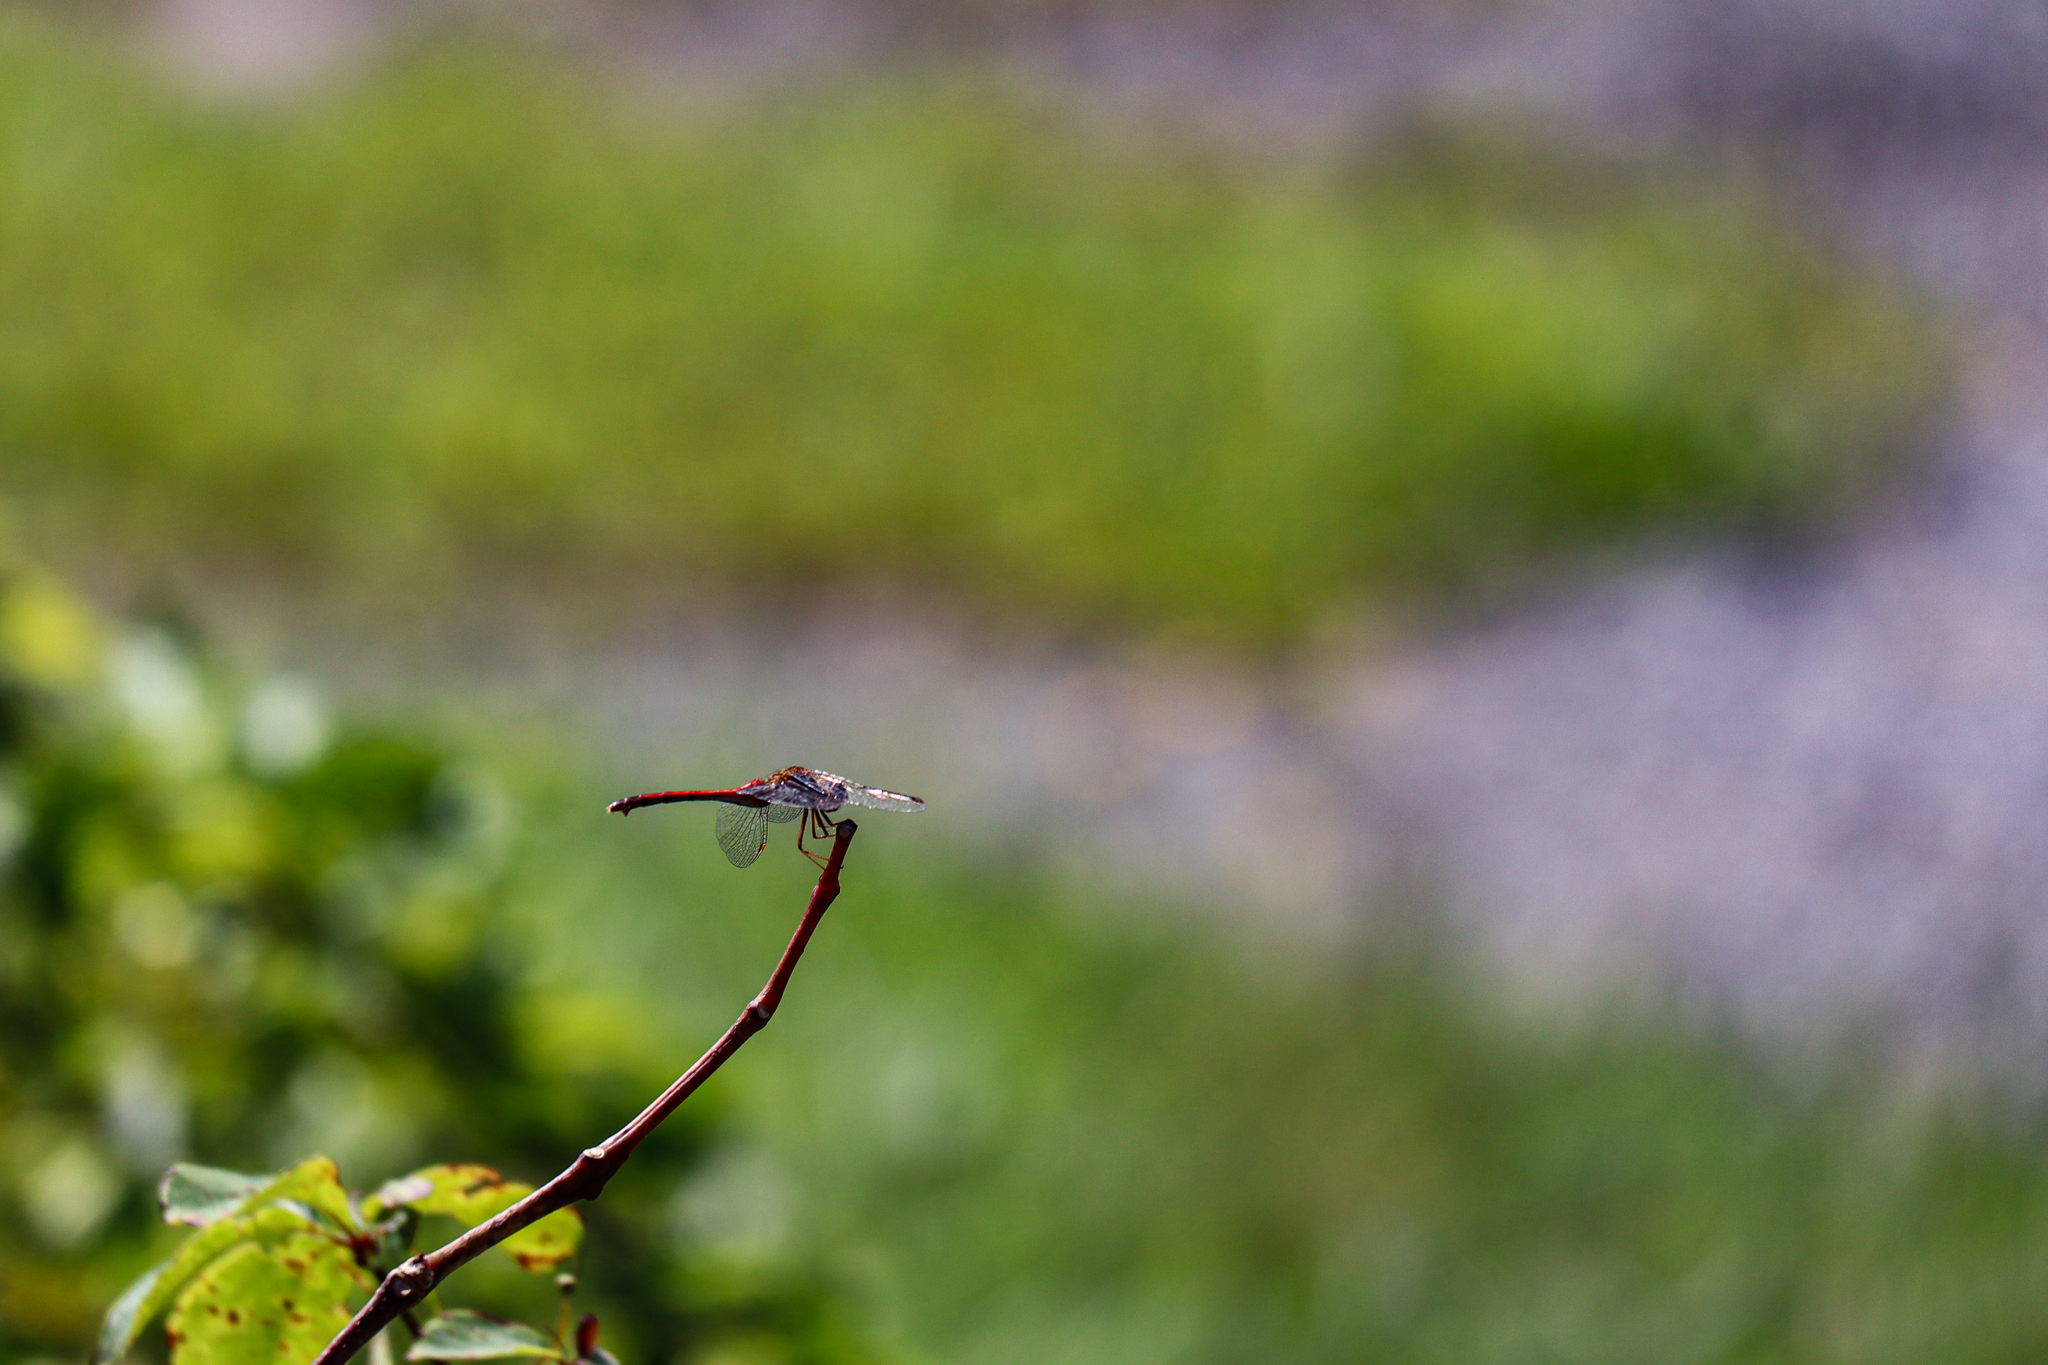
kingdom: Animalia
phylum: Arthropoda
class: Insecta
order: Odonata
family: Libellulidae
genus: Sympetrum
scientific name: Sympetrum vicinum
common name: Autumn meadowhawk
